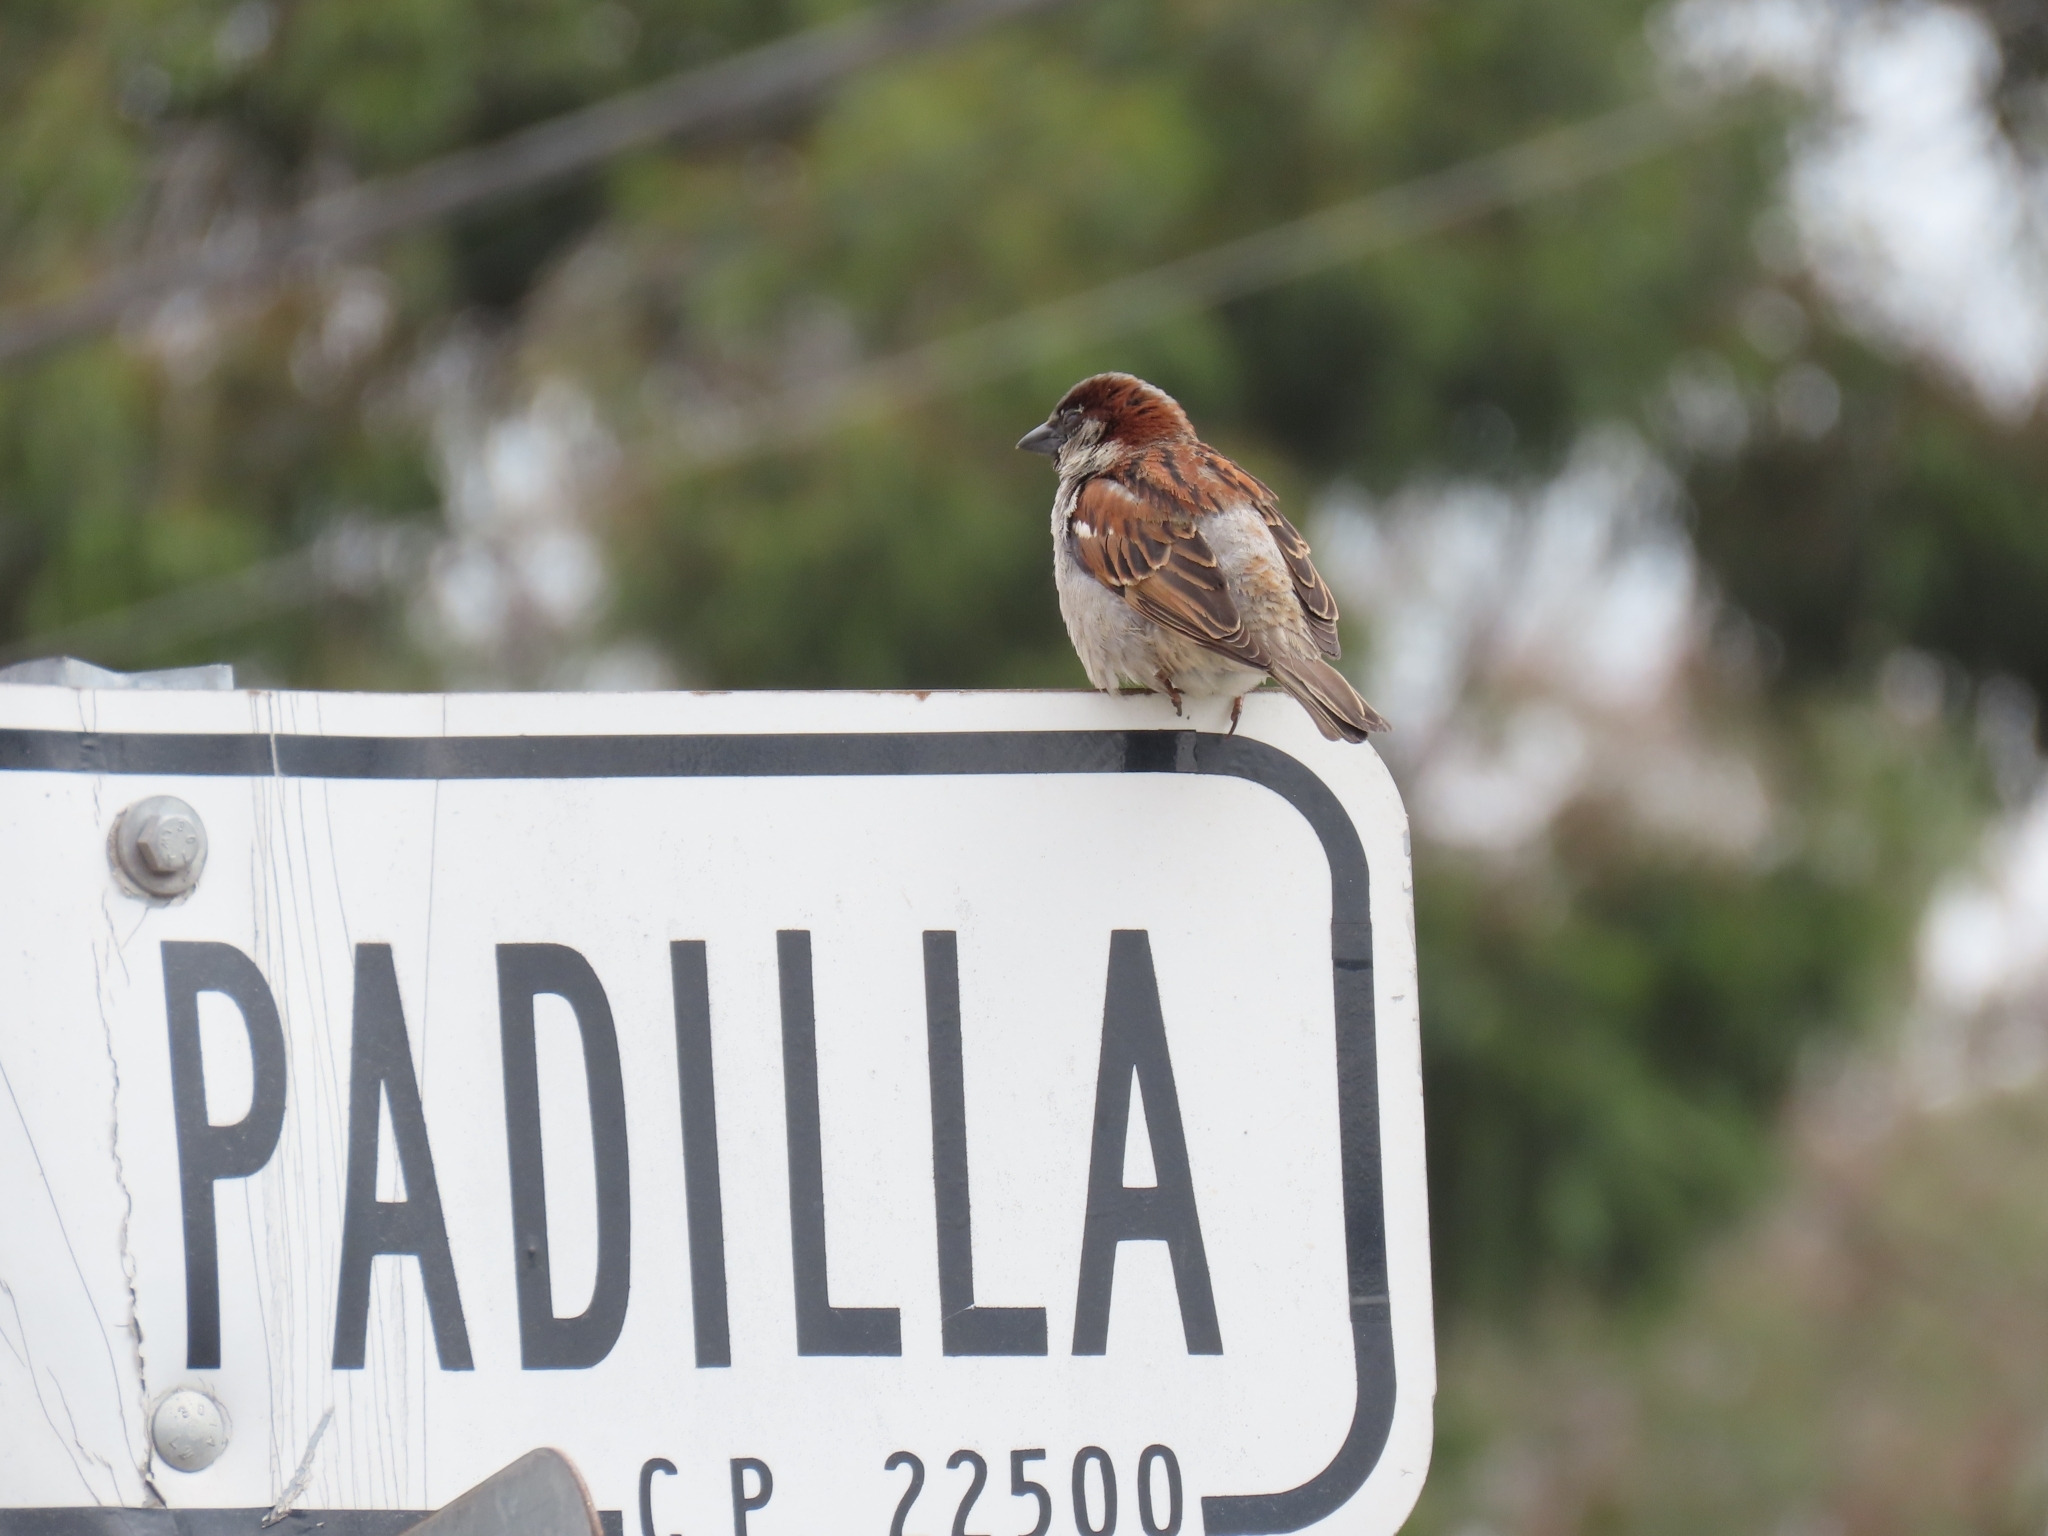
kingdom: Animalia
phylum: Chordata
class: Aves
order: Passeriformes
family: Passeridae
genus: Passer
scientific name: Passer domesticus
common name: House sparrow
